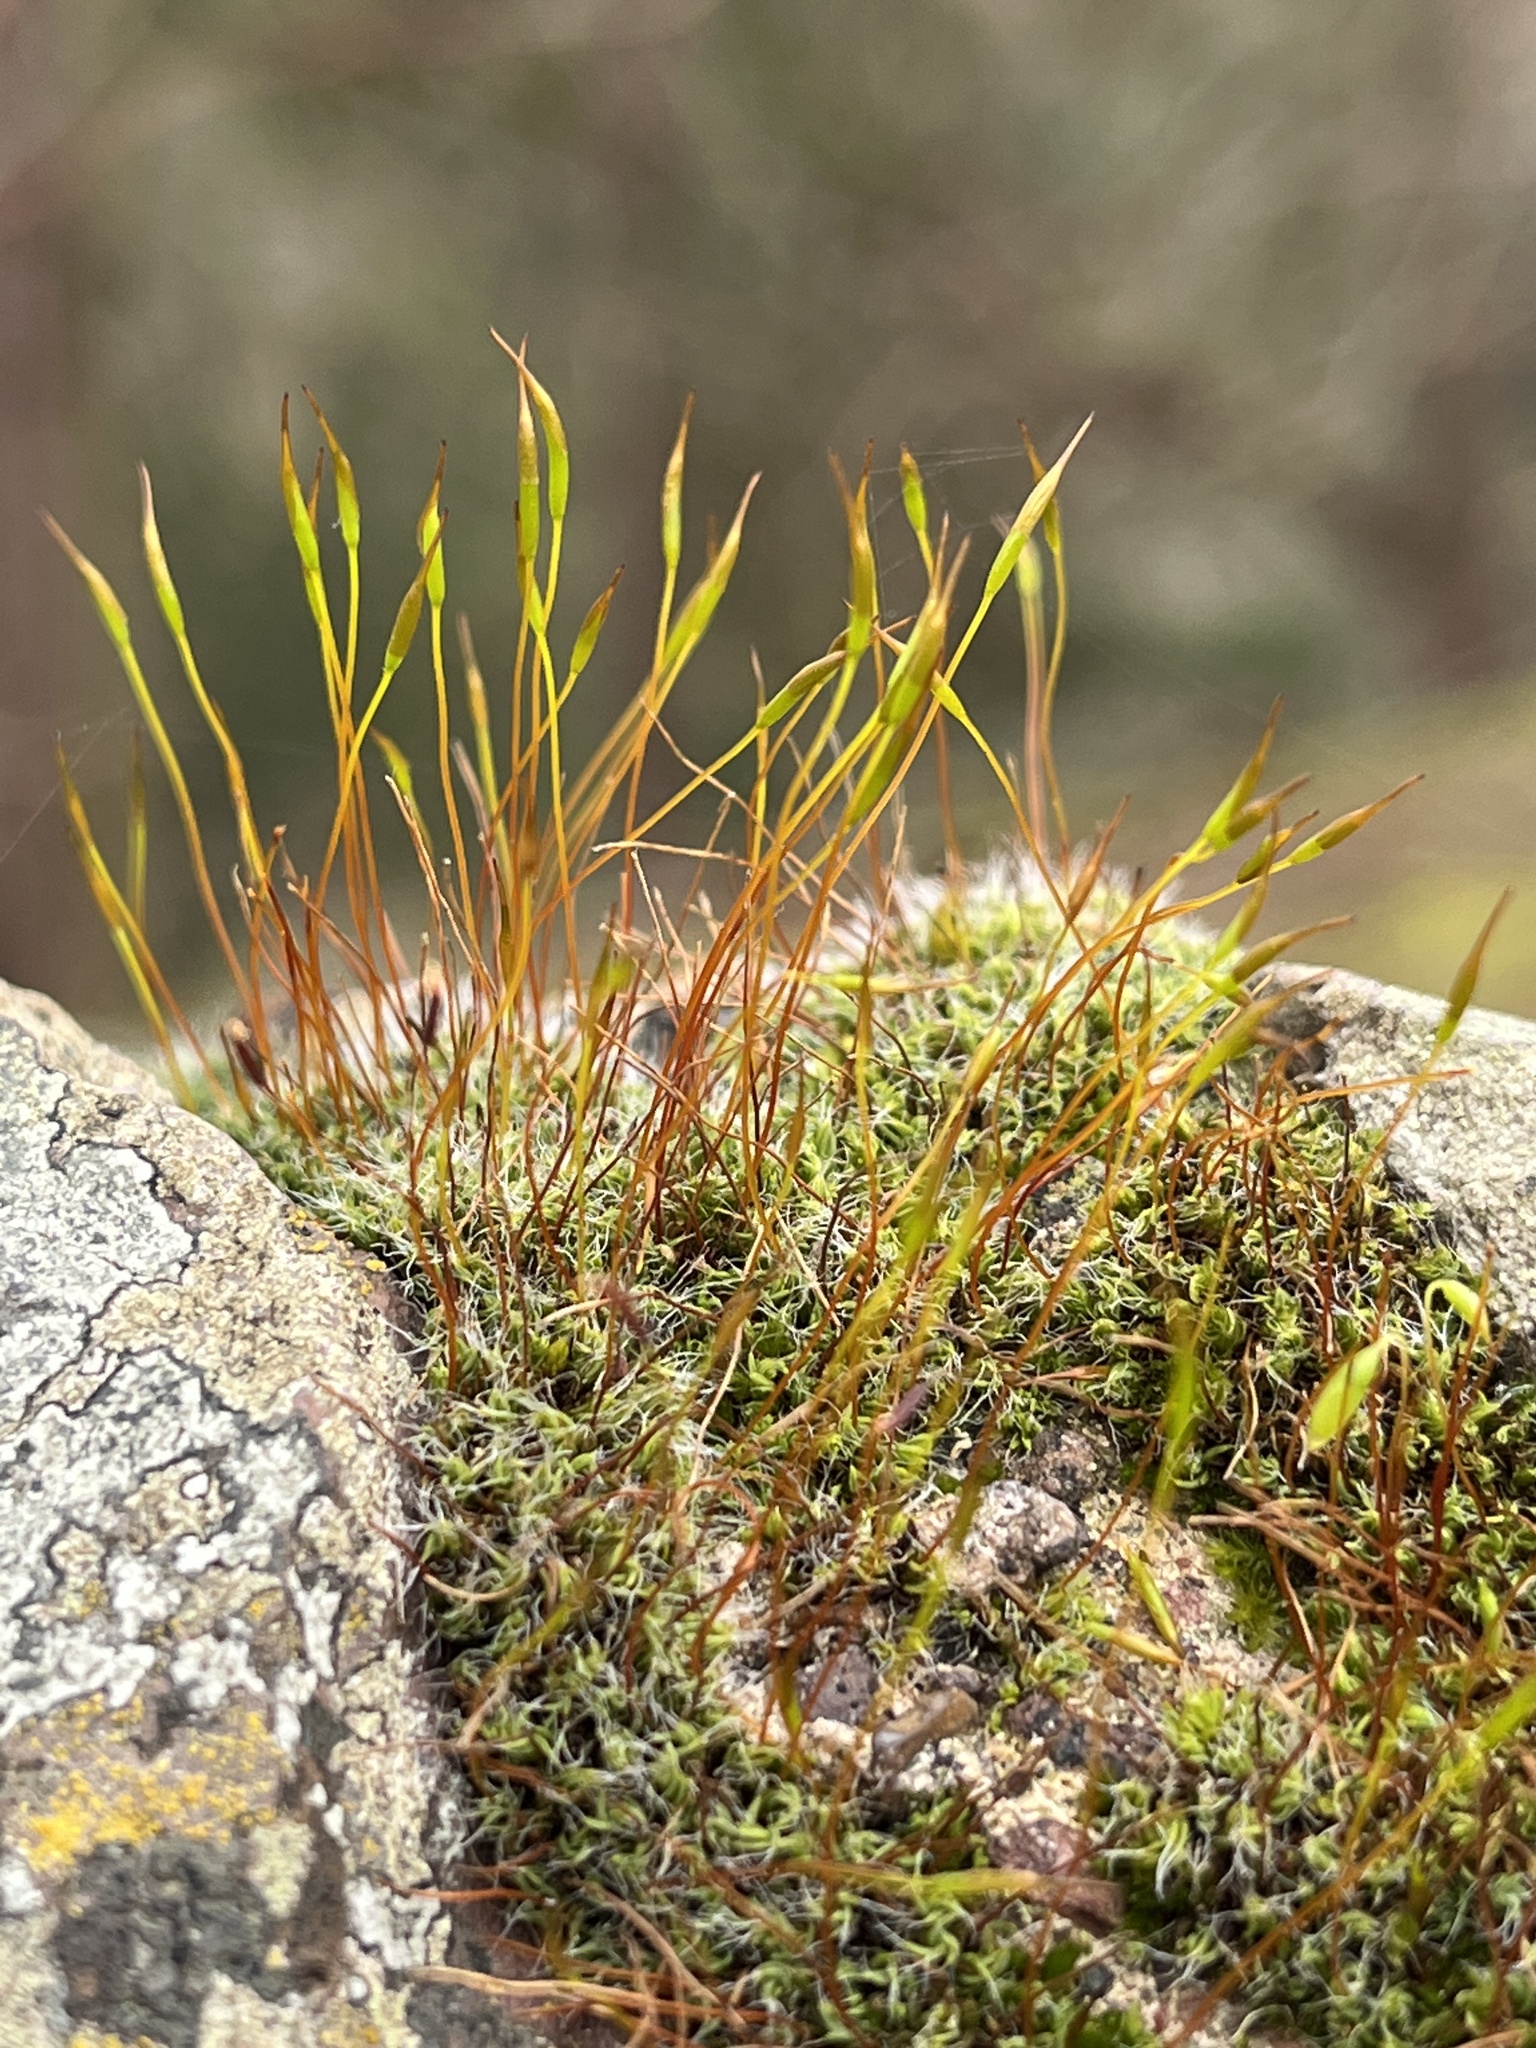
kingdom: Plantae
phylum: Bryophyta
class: Bryopsida
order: Pottiales
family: Pottiaceae
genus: Tortula
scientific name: Tortula muralis
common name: Wall screw-moss
